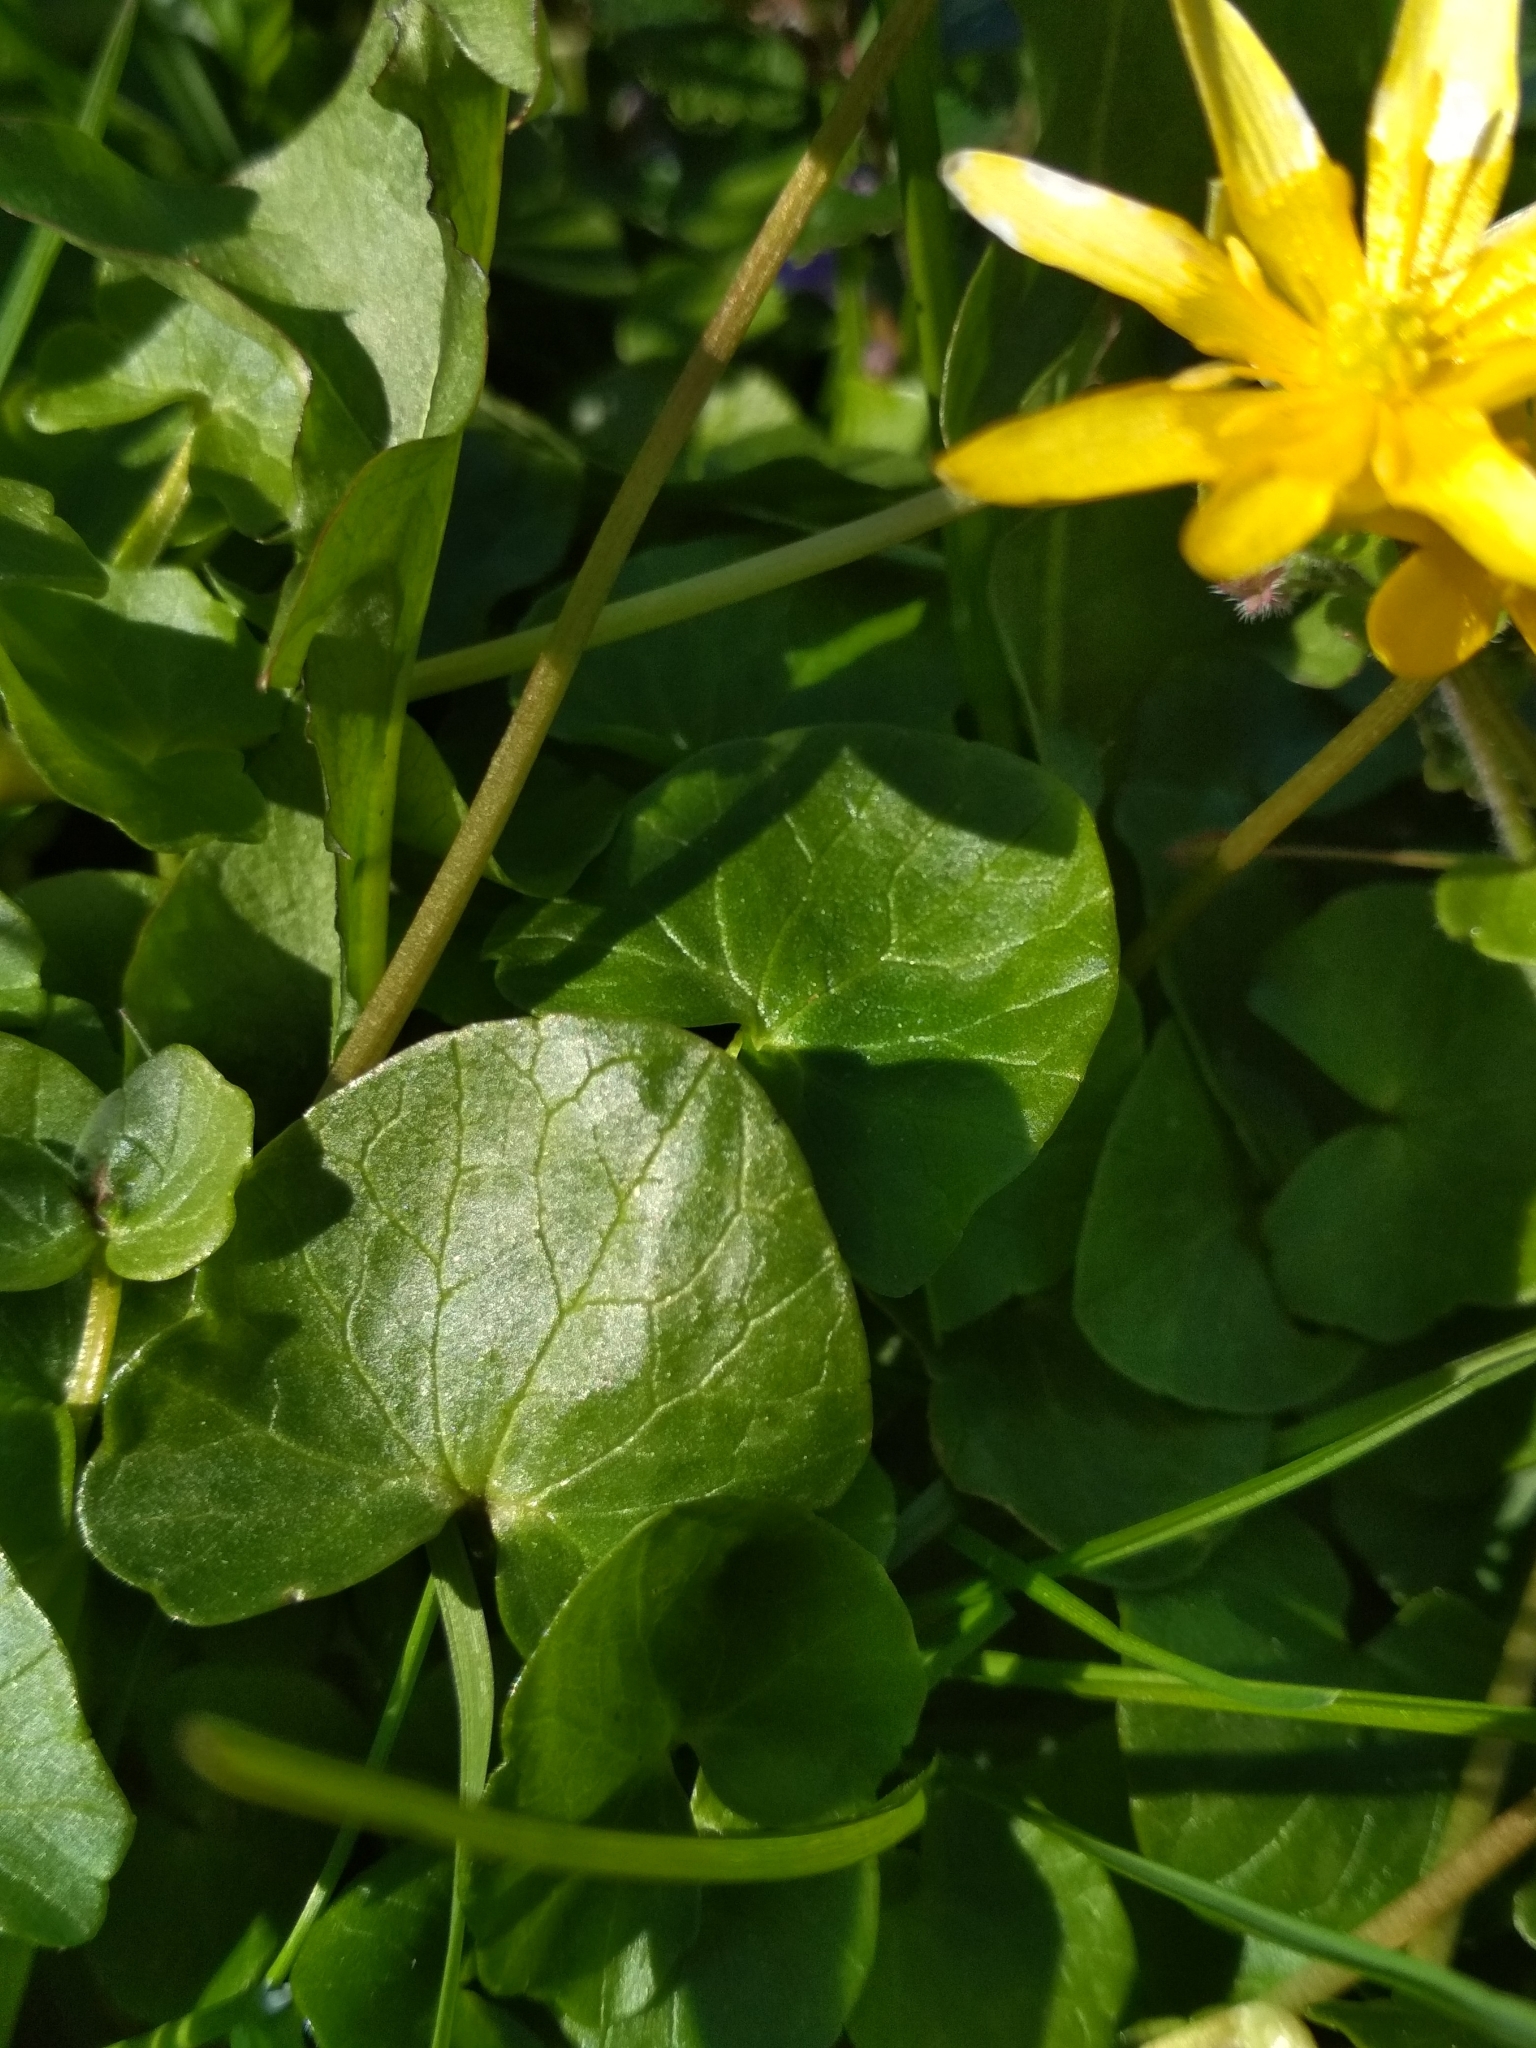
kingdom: Plantae
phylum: Tracheophyta
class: Magnoliopsida
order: Ranunculales
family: Ranunculaceae
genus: Ficaria
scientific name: Ficaria verna
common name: Lesser celandine
